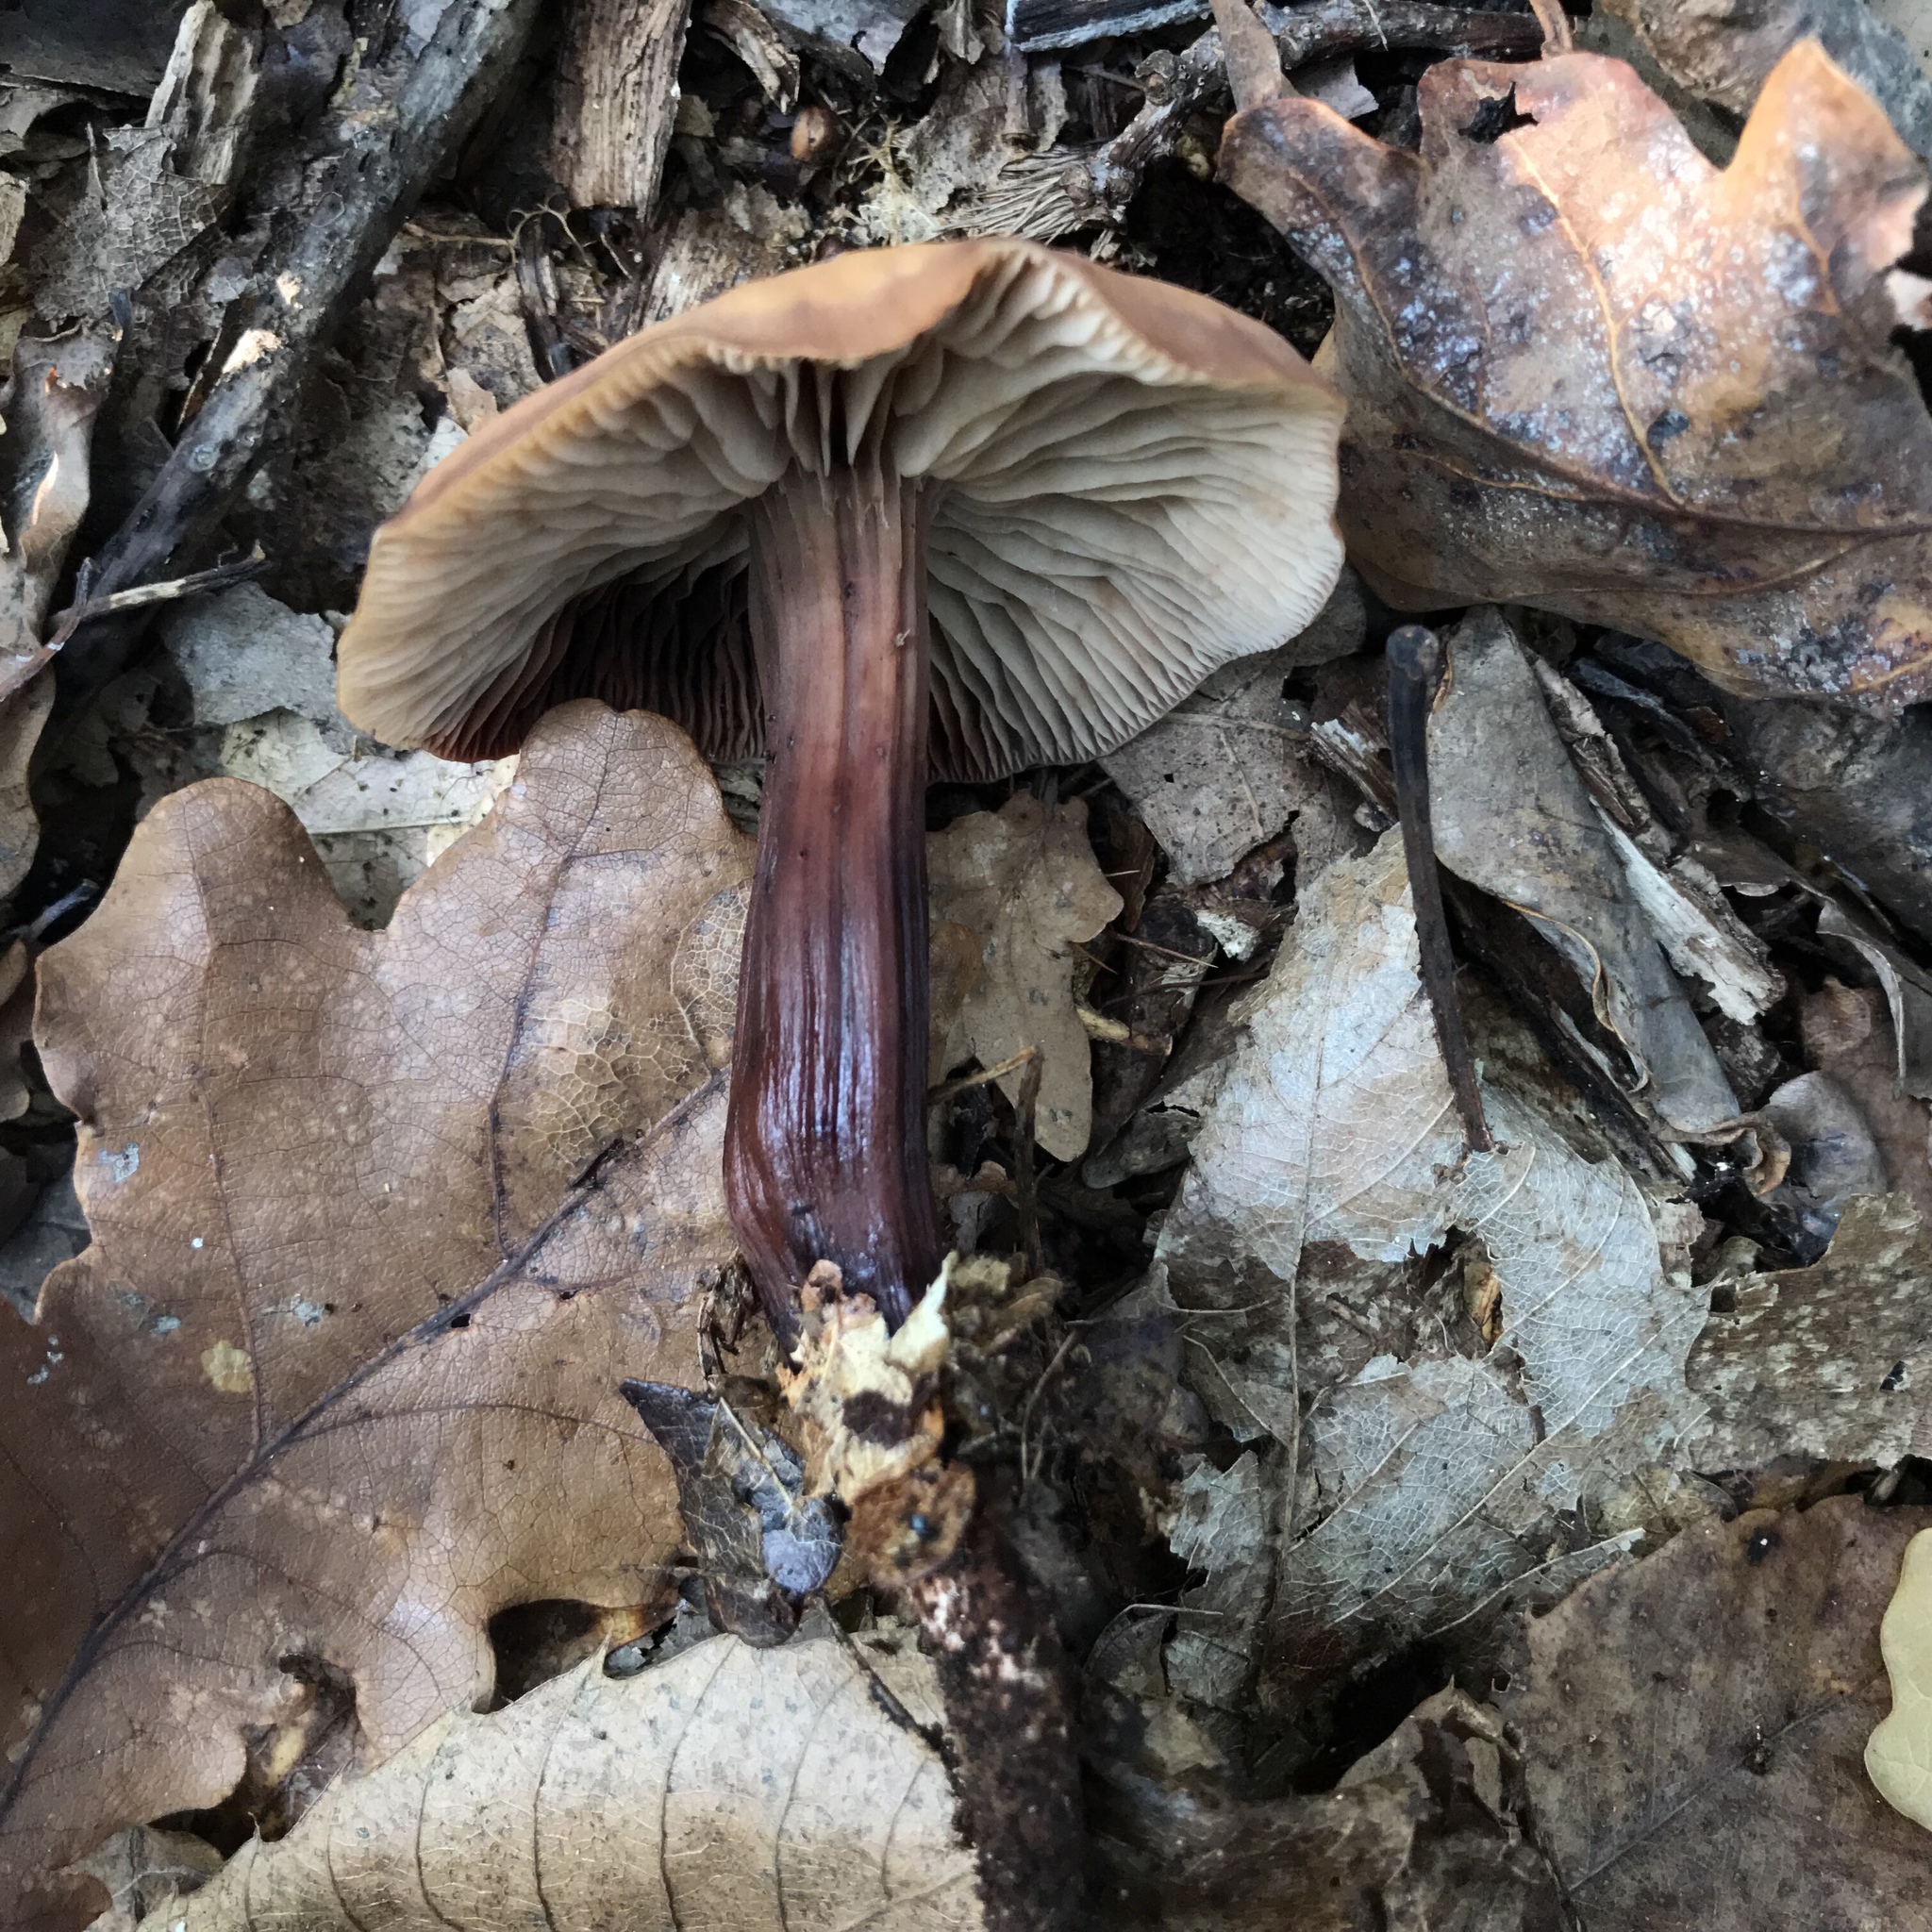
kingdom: Fungi
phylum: Basidiomycota
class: Agaricomycetes
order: Agaricales
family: Omphalotaceae
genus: Gymnopus
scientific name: Gymnopus fusipes
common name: Spindle shank
